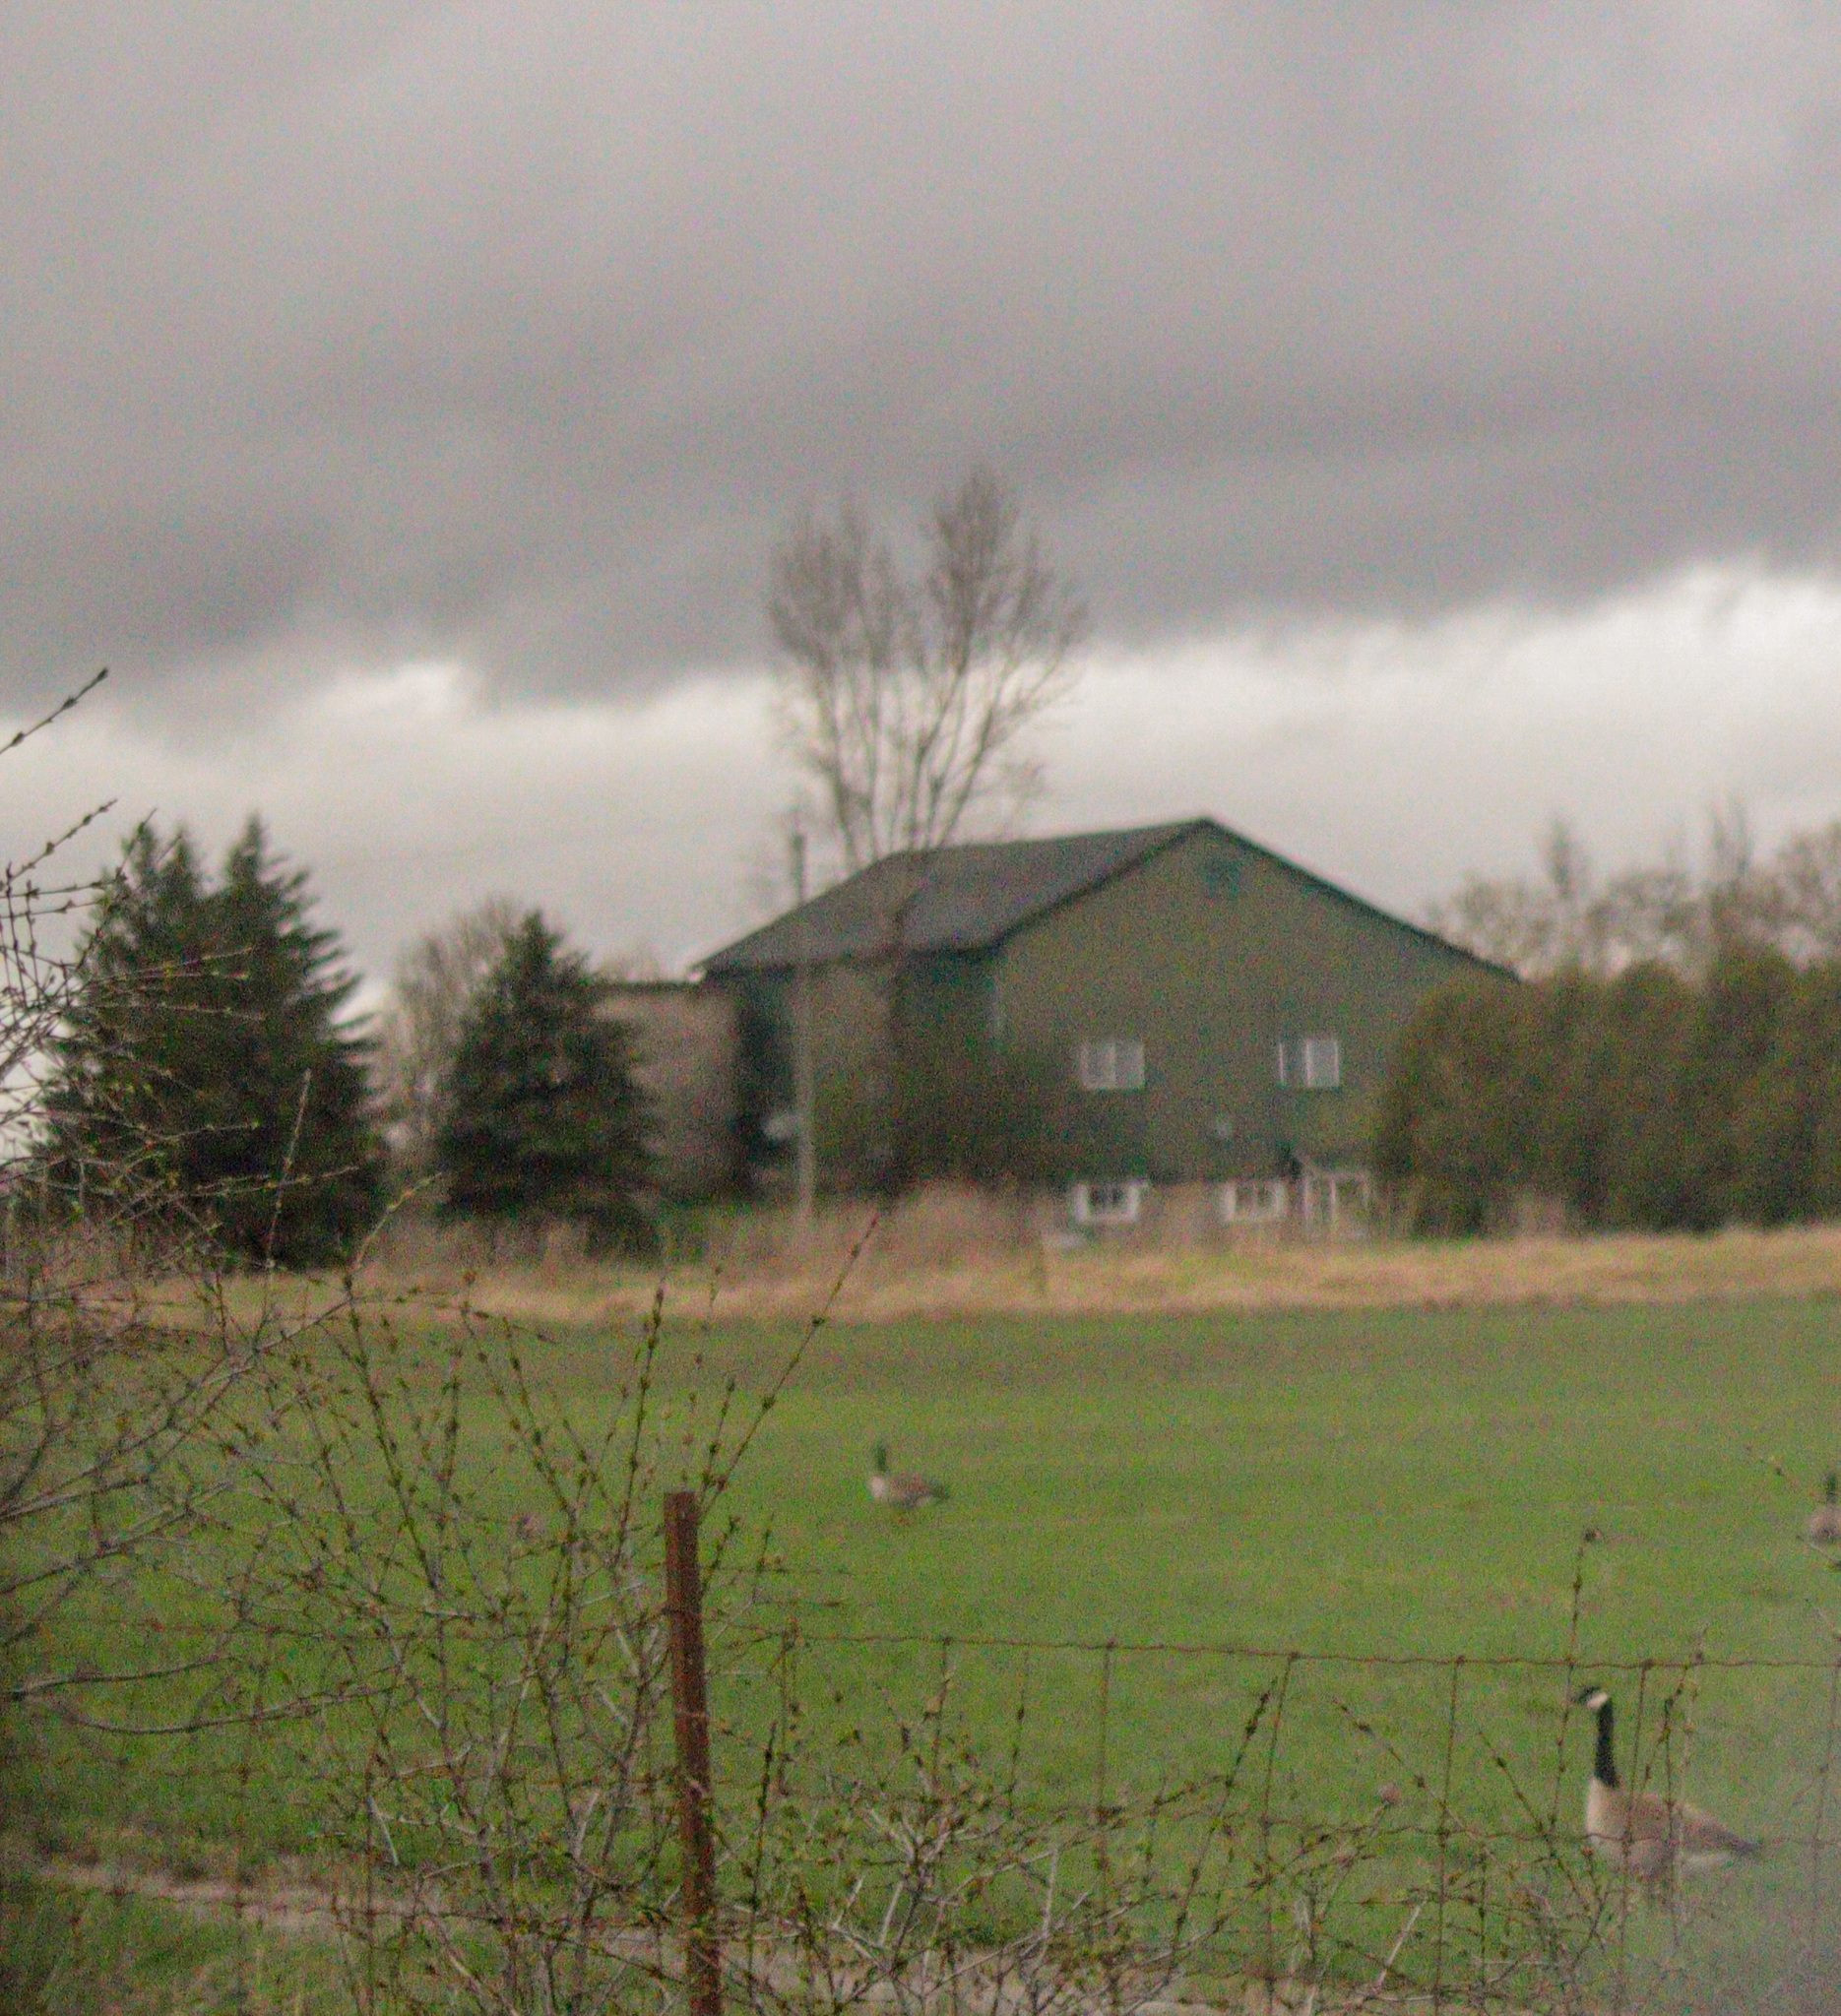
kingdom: Animalia
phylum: Chordata
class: Aves
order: Anseriformes
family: Anatidae
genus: Branta
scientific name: Branta canadensis
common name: Canada goose
